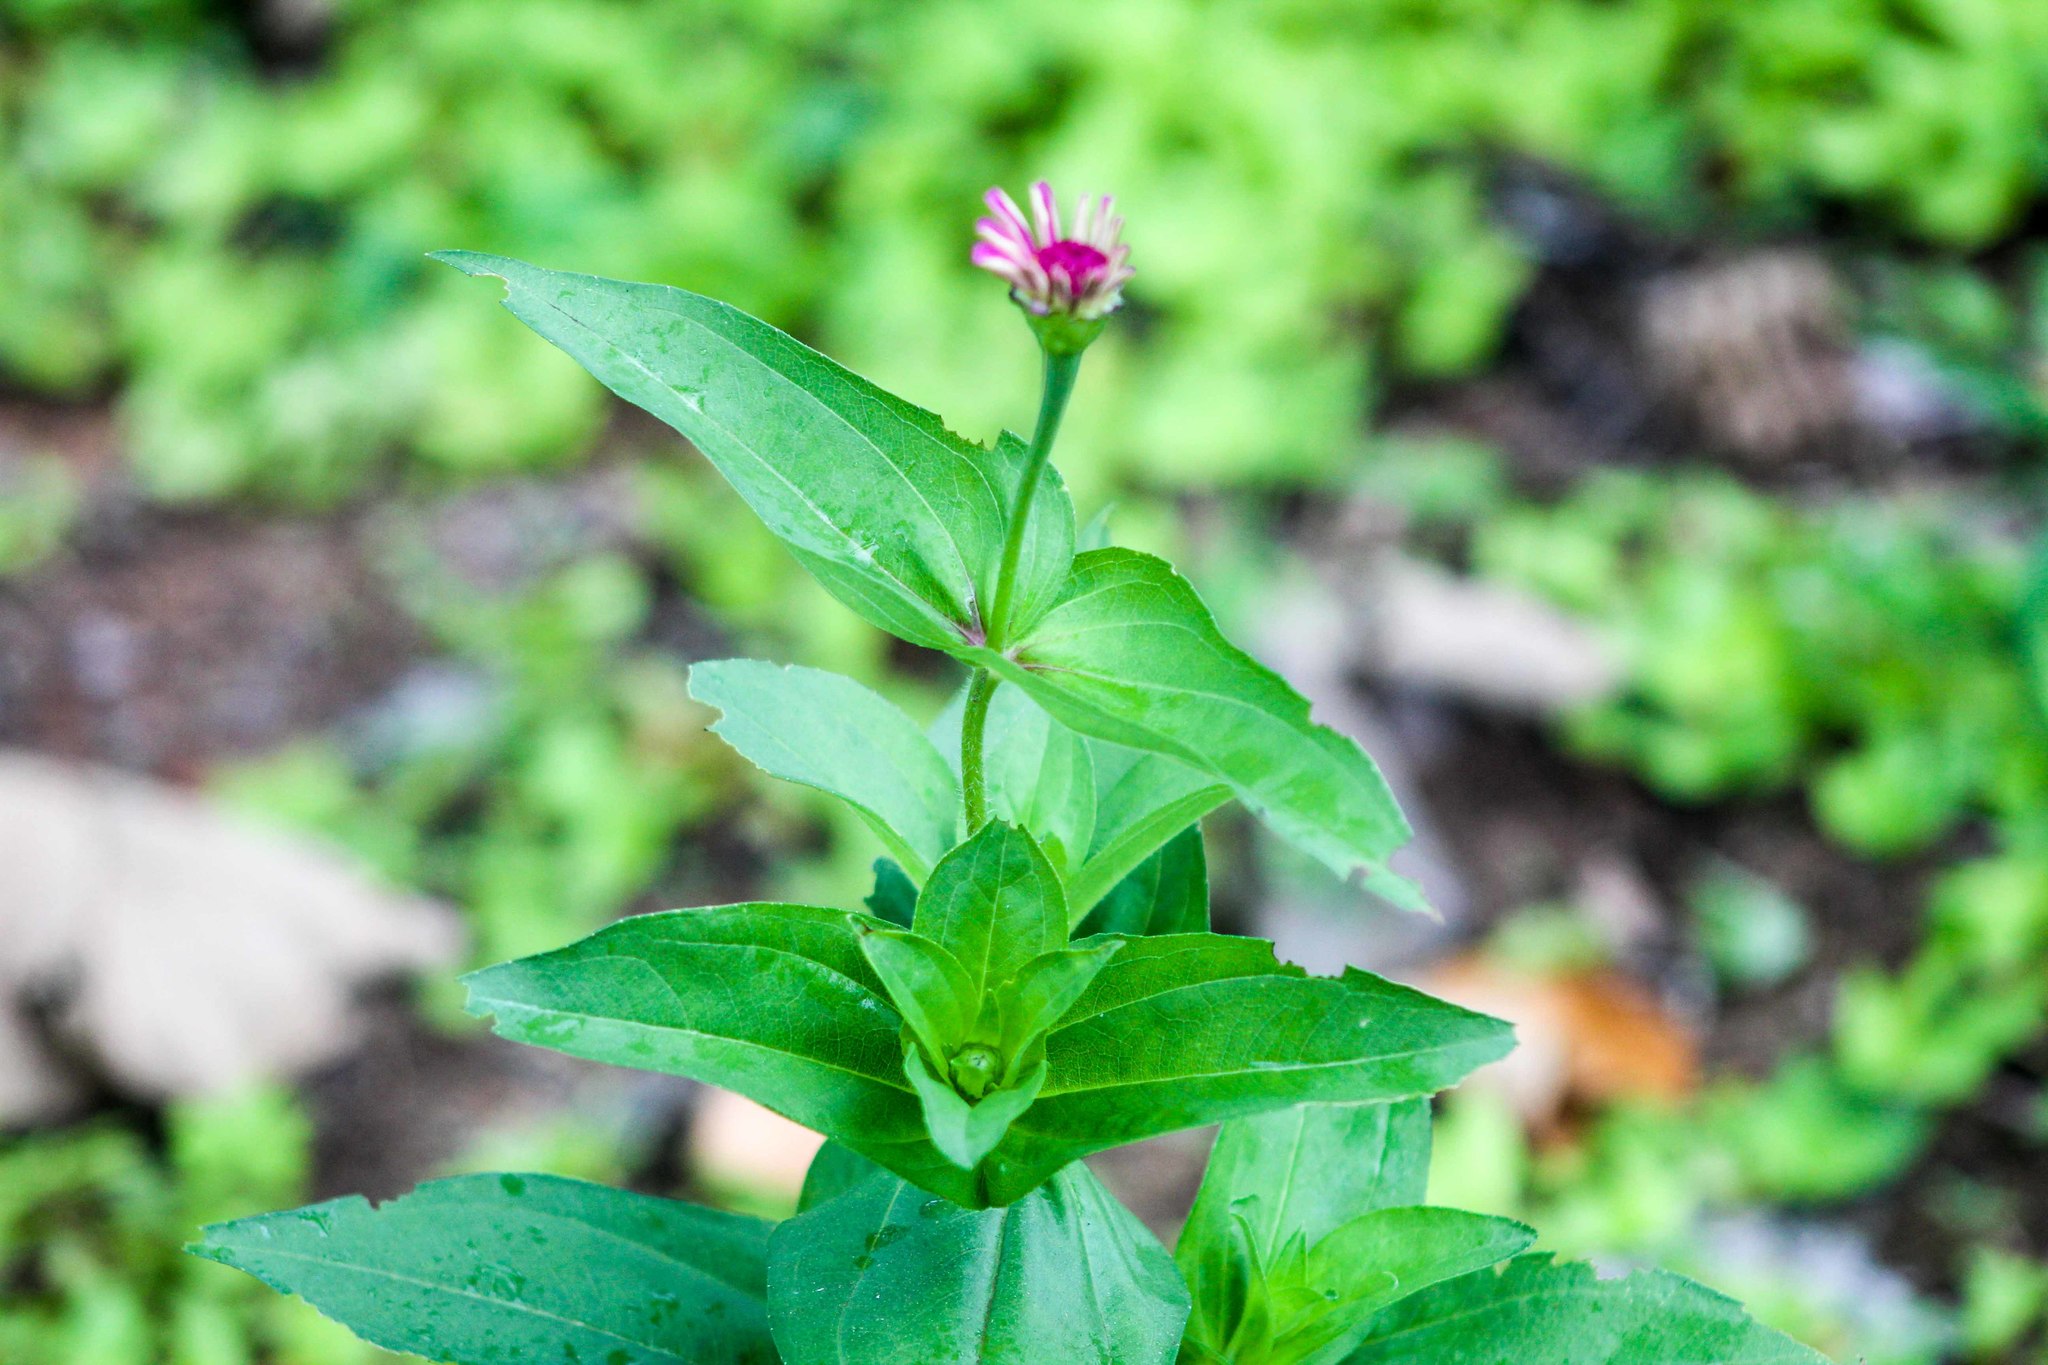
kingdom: Plantae
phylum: Tracheophyta
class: Magnoliopsida
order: Asterales
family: Asteraceae
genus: Zinnia
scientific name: Zinnia elegans
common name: Youth-and-age
